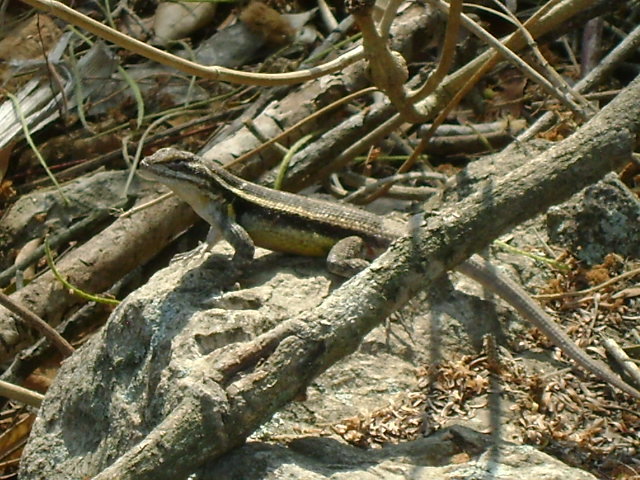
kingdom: Animalia
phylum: Chordata
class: Squamata
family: Phrynosomatidae
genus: Sceloporus
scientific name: Sceloporus variabilis
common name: Rosebelly lizard
